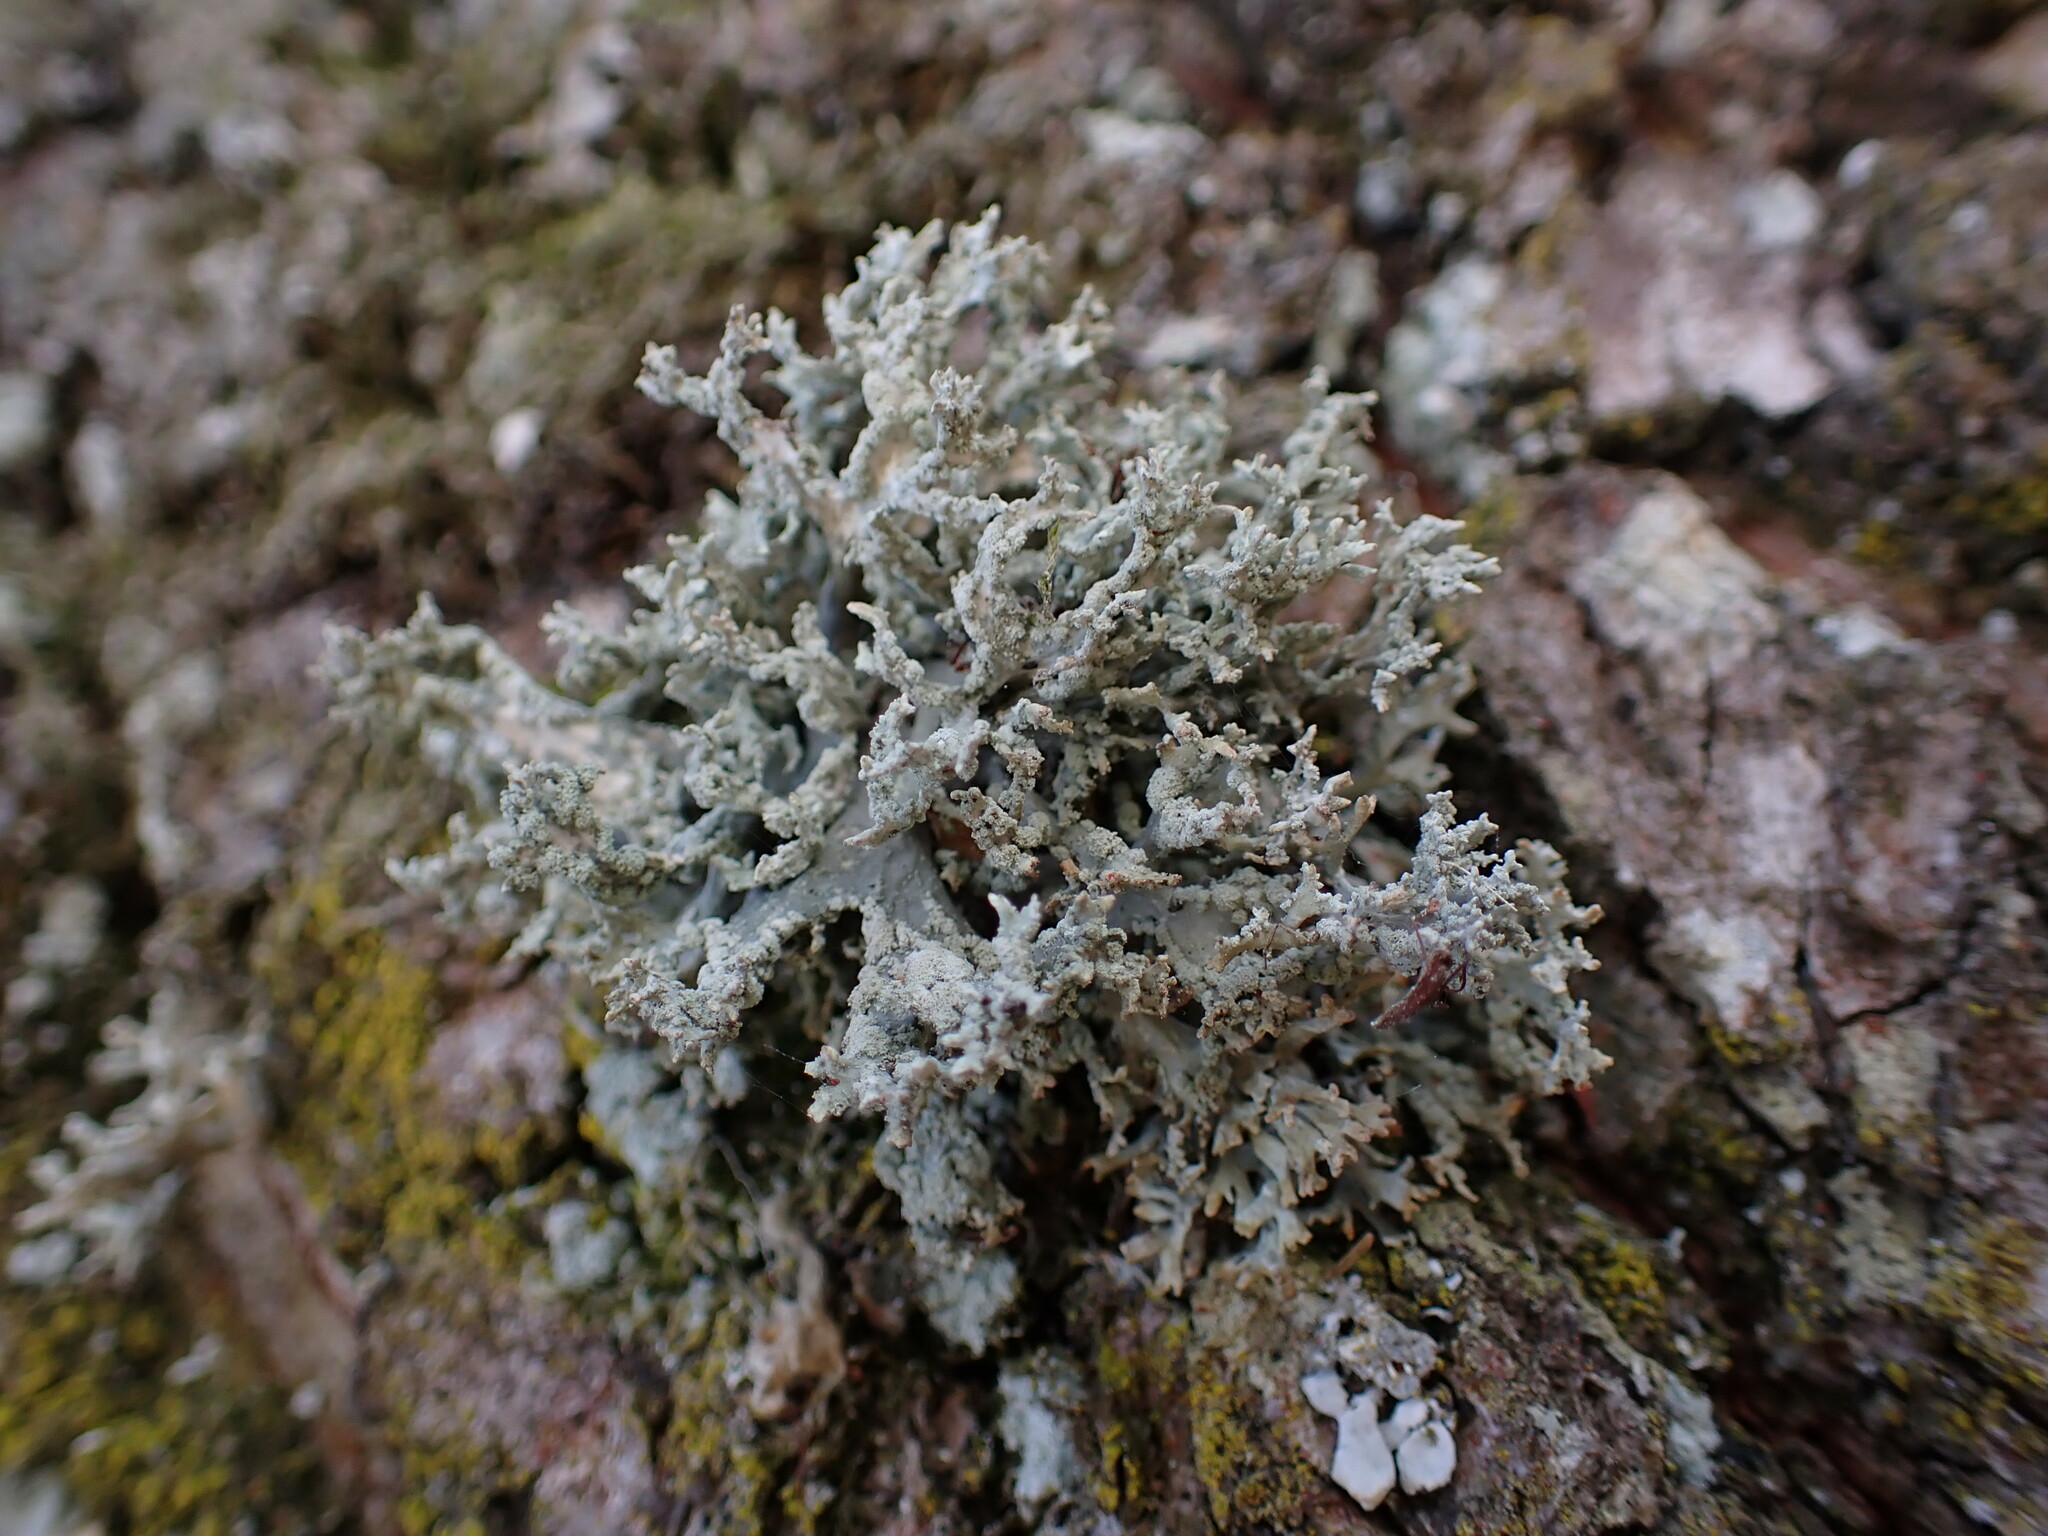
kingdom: Fungi
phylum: Ascomycota
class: Lecanoromycetes
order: Lecanorales
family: Parmeliaceae
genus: Evernia
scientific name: Evernia prunastri
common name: Oak moss
